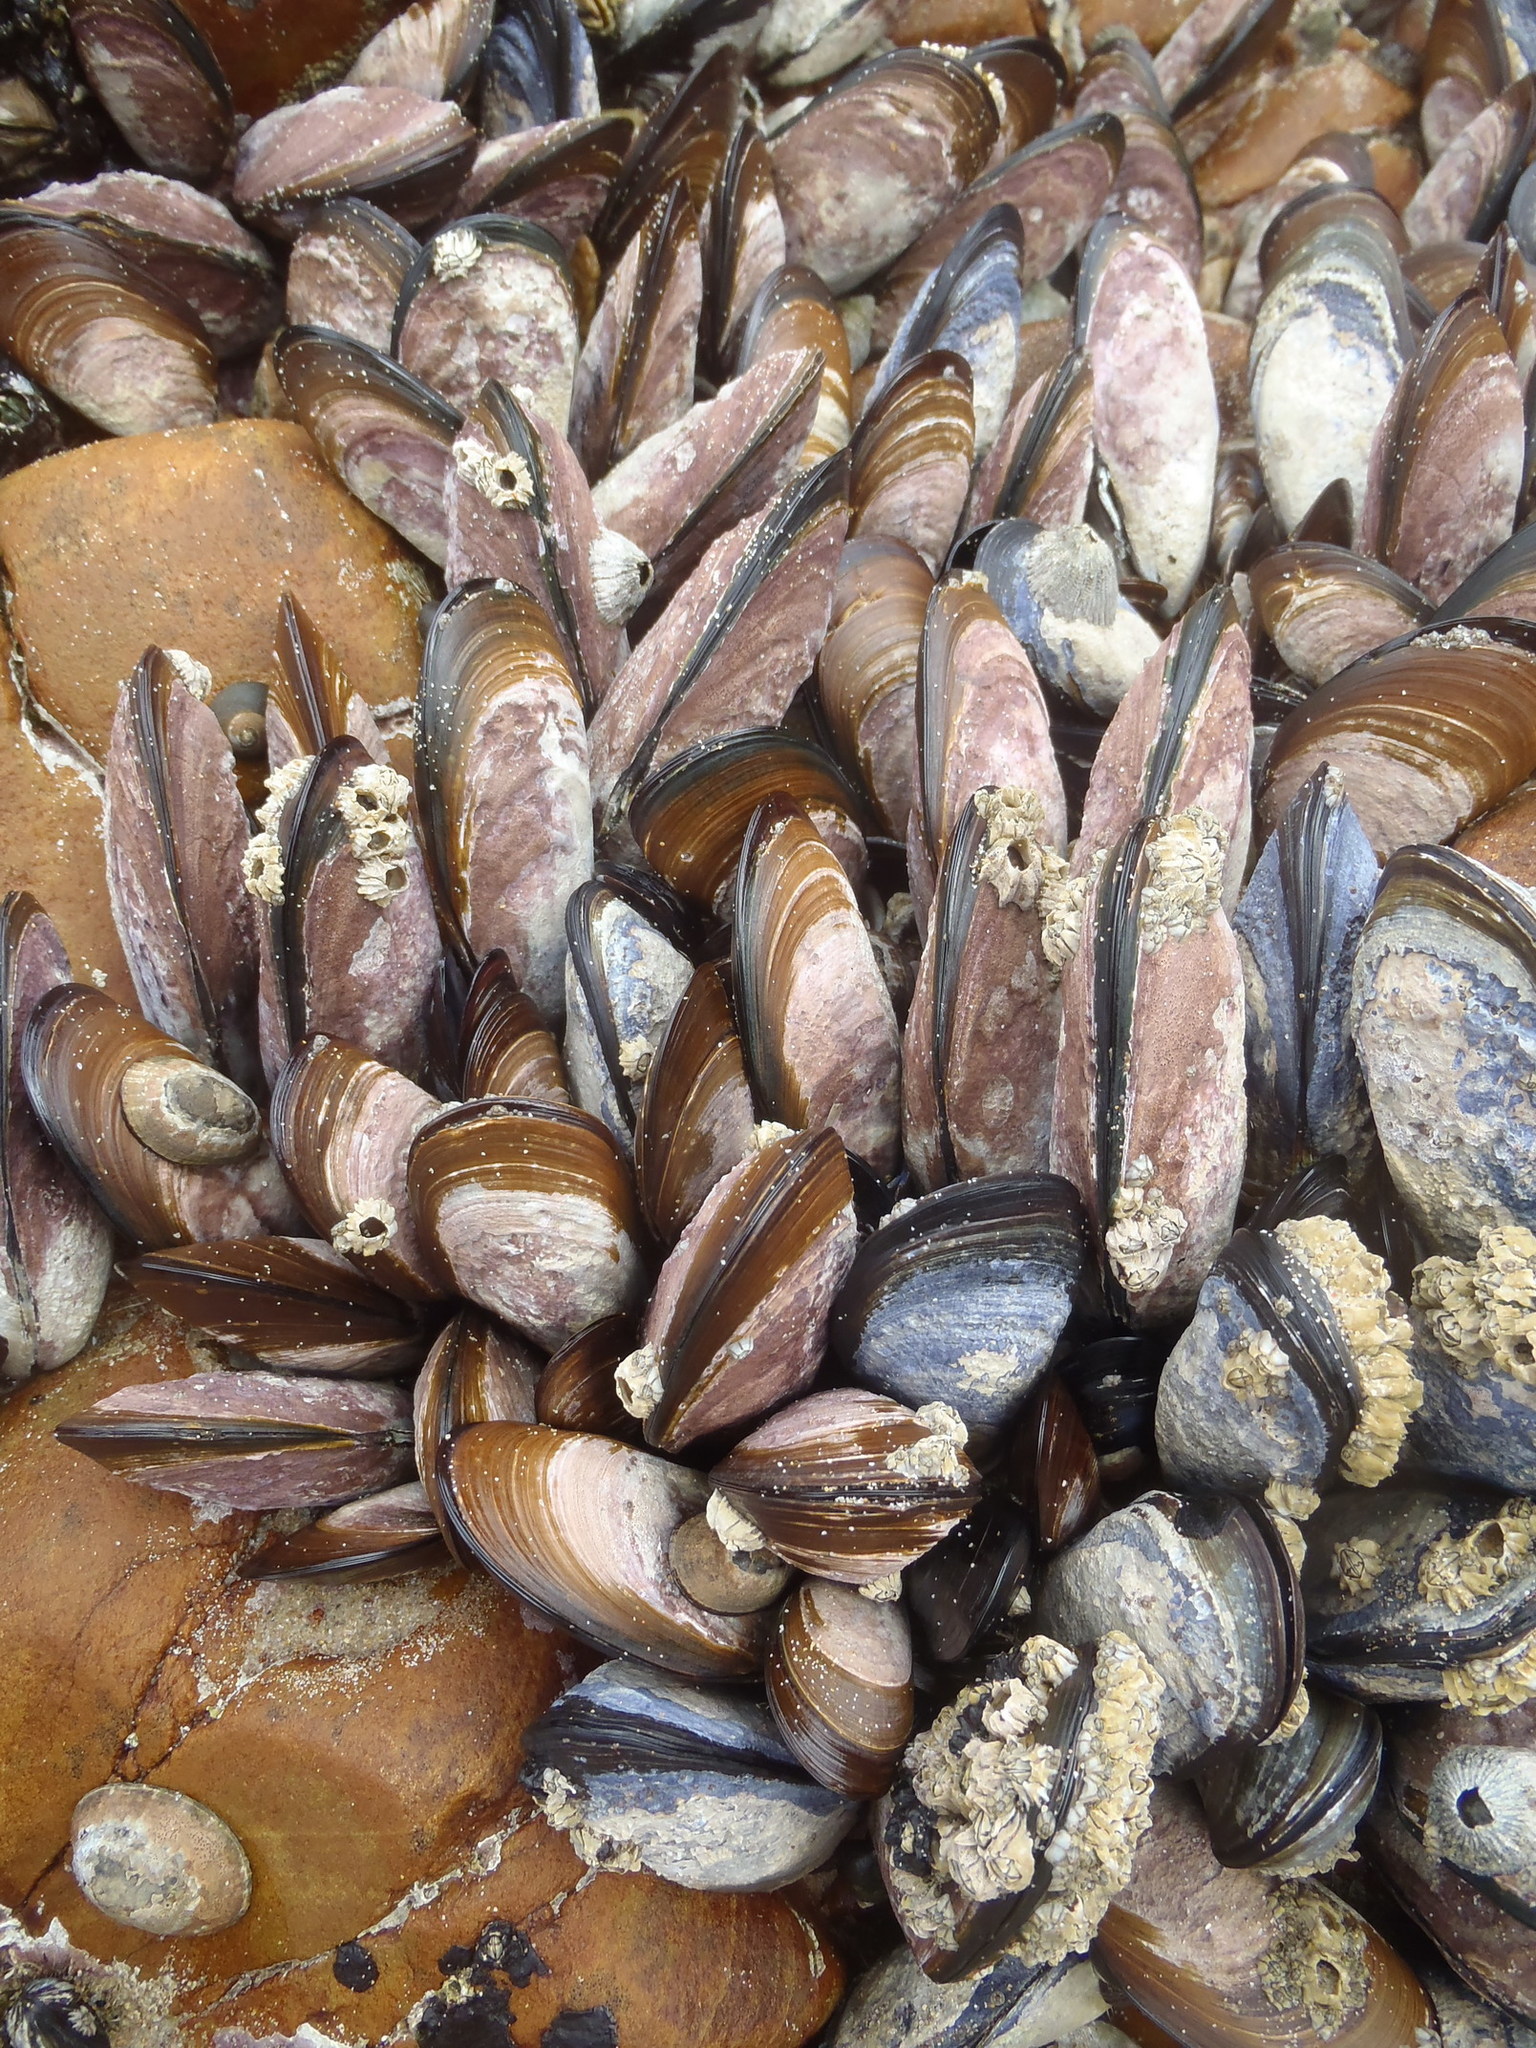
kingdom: Animalia
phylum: Mollusca
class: Bivalvia
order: Mytilida
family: Mytilidae
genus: Perna
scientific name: Perna perna
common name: Mexilhao mussel
